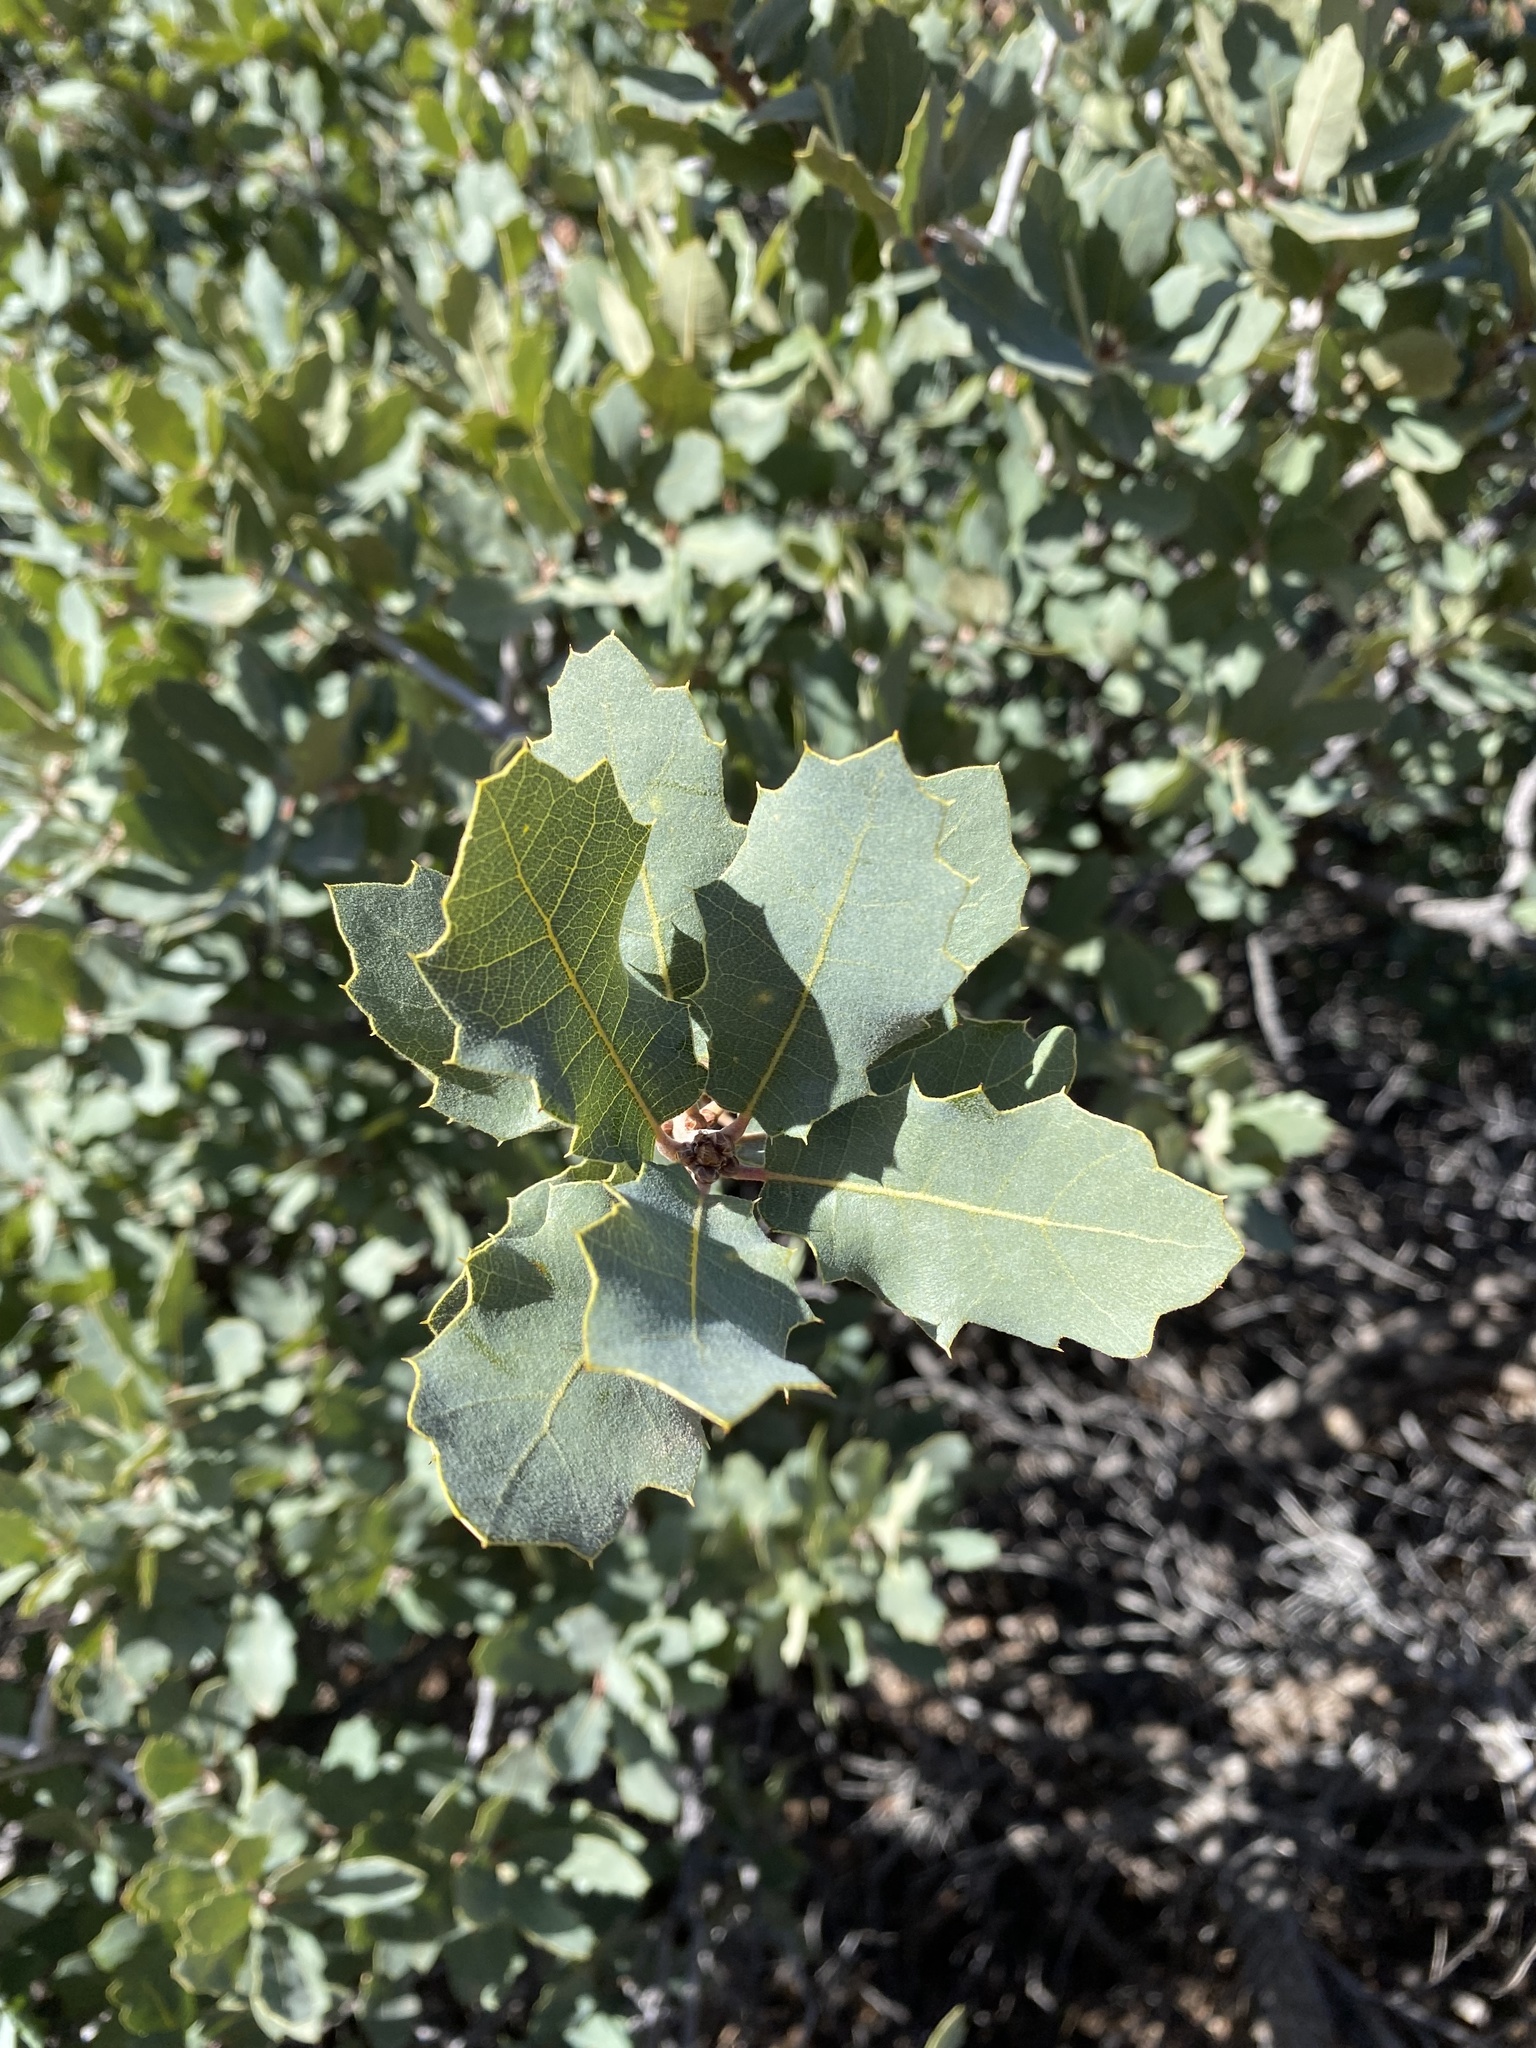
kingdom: Plantae
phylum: Tracheophyta
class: Magnoliopsida
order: Fagales
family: Fagaceae
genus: Quercus
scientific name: Quercus turbinella
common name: Sonoran scrub oak
